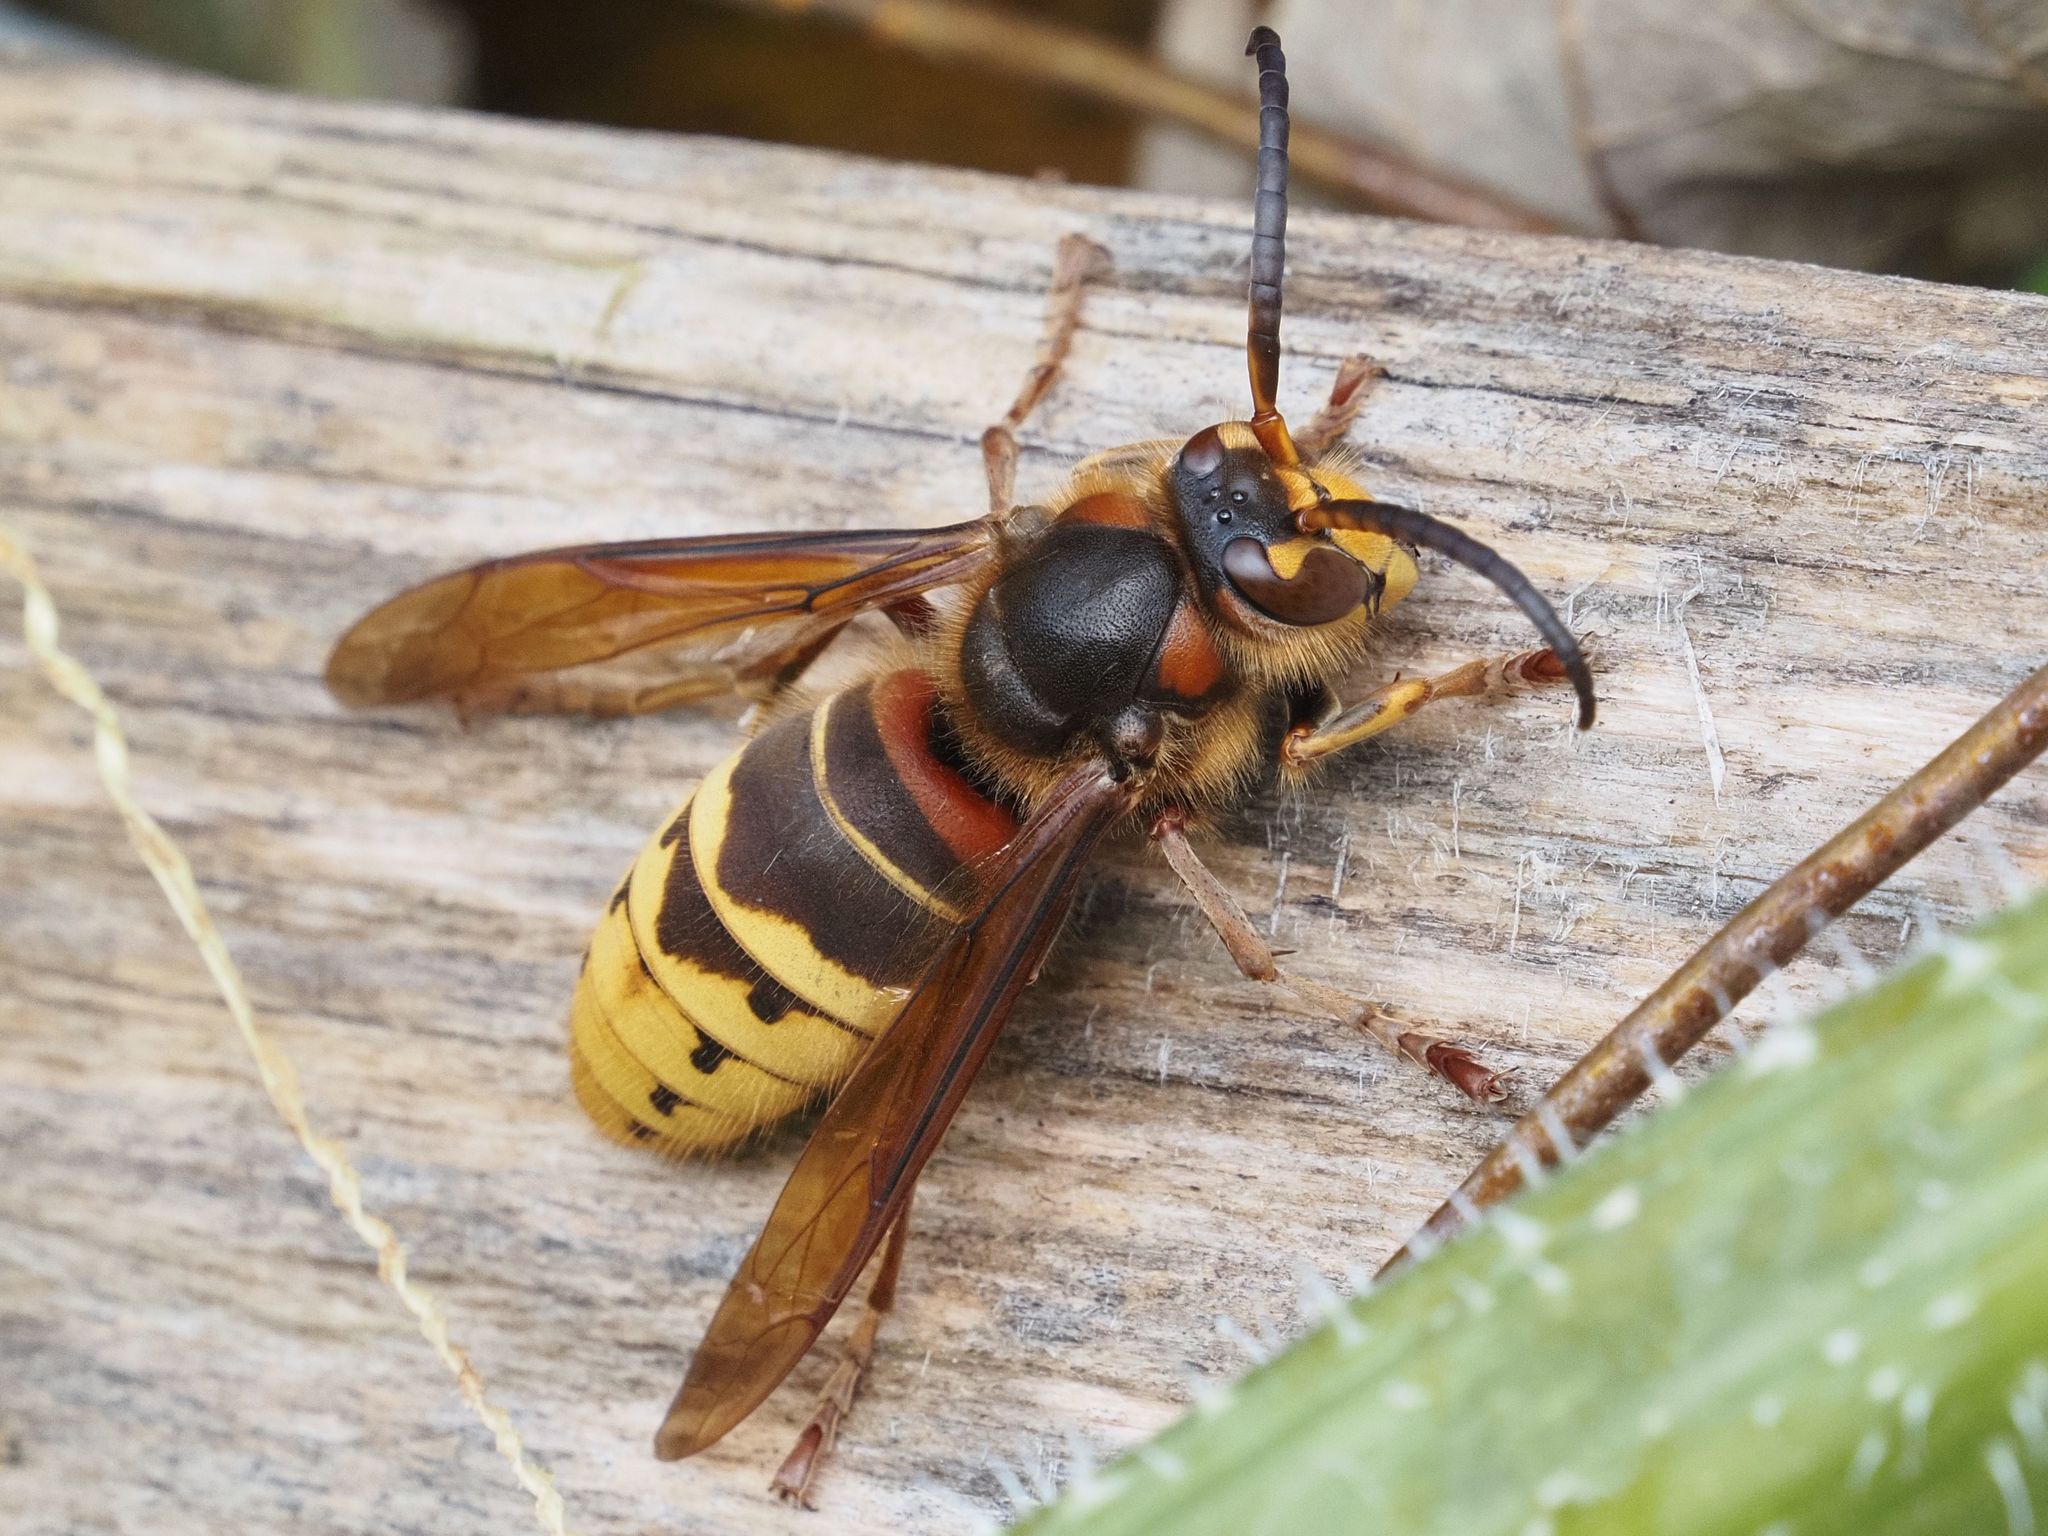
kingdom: Animalia
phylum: Arthropoda
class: Insecta
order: Hymenoptera
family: Vespidae
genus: Vespa
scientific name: Vespa crabro
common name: Hornet
